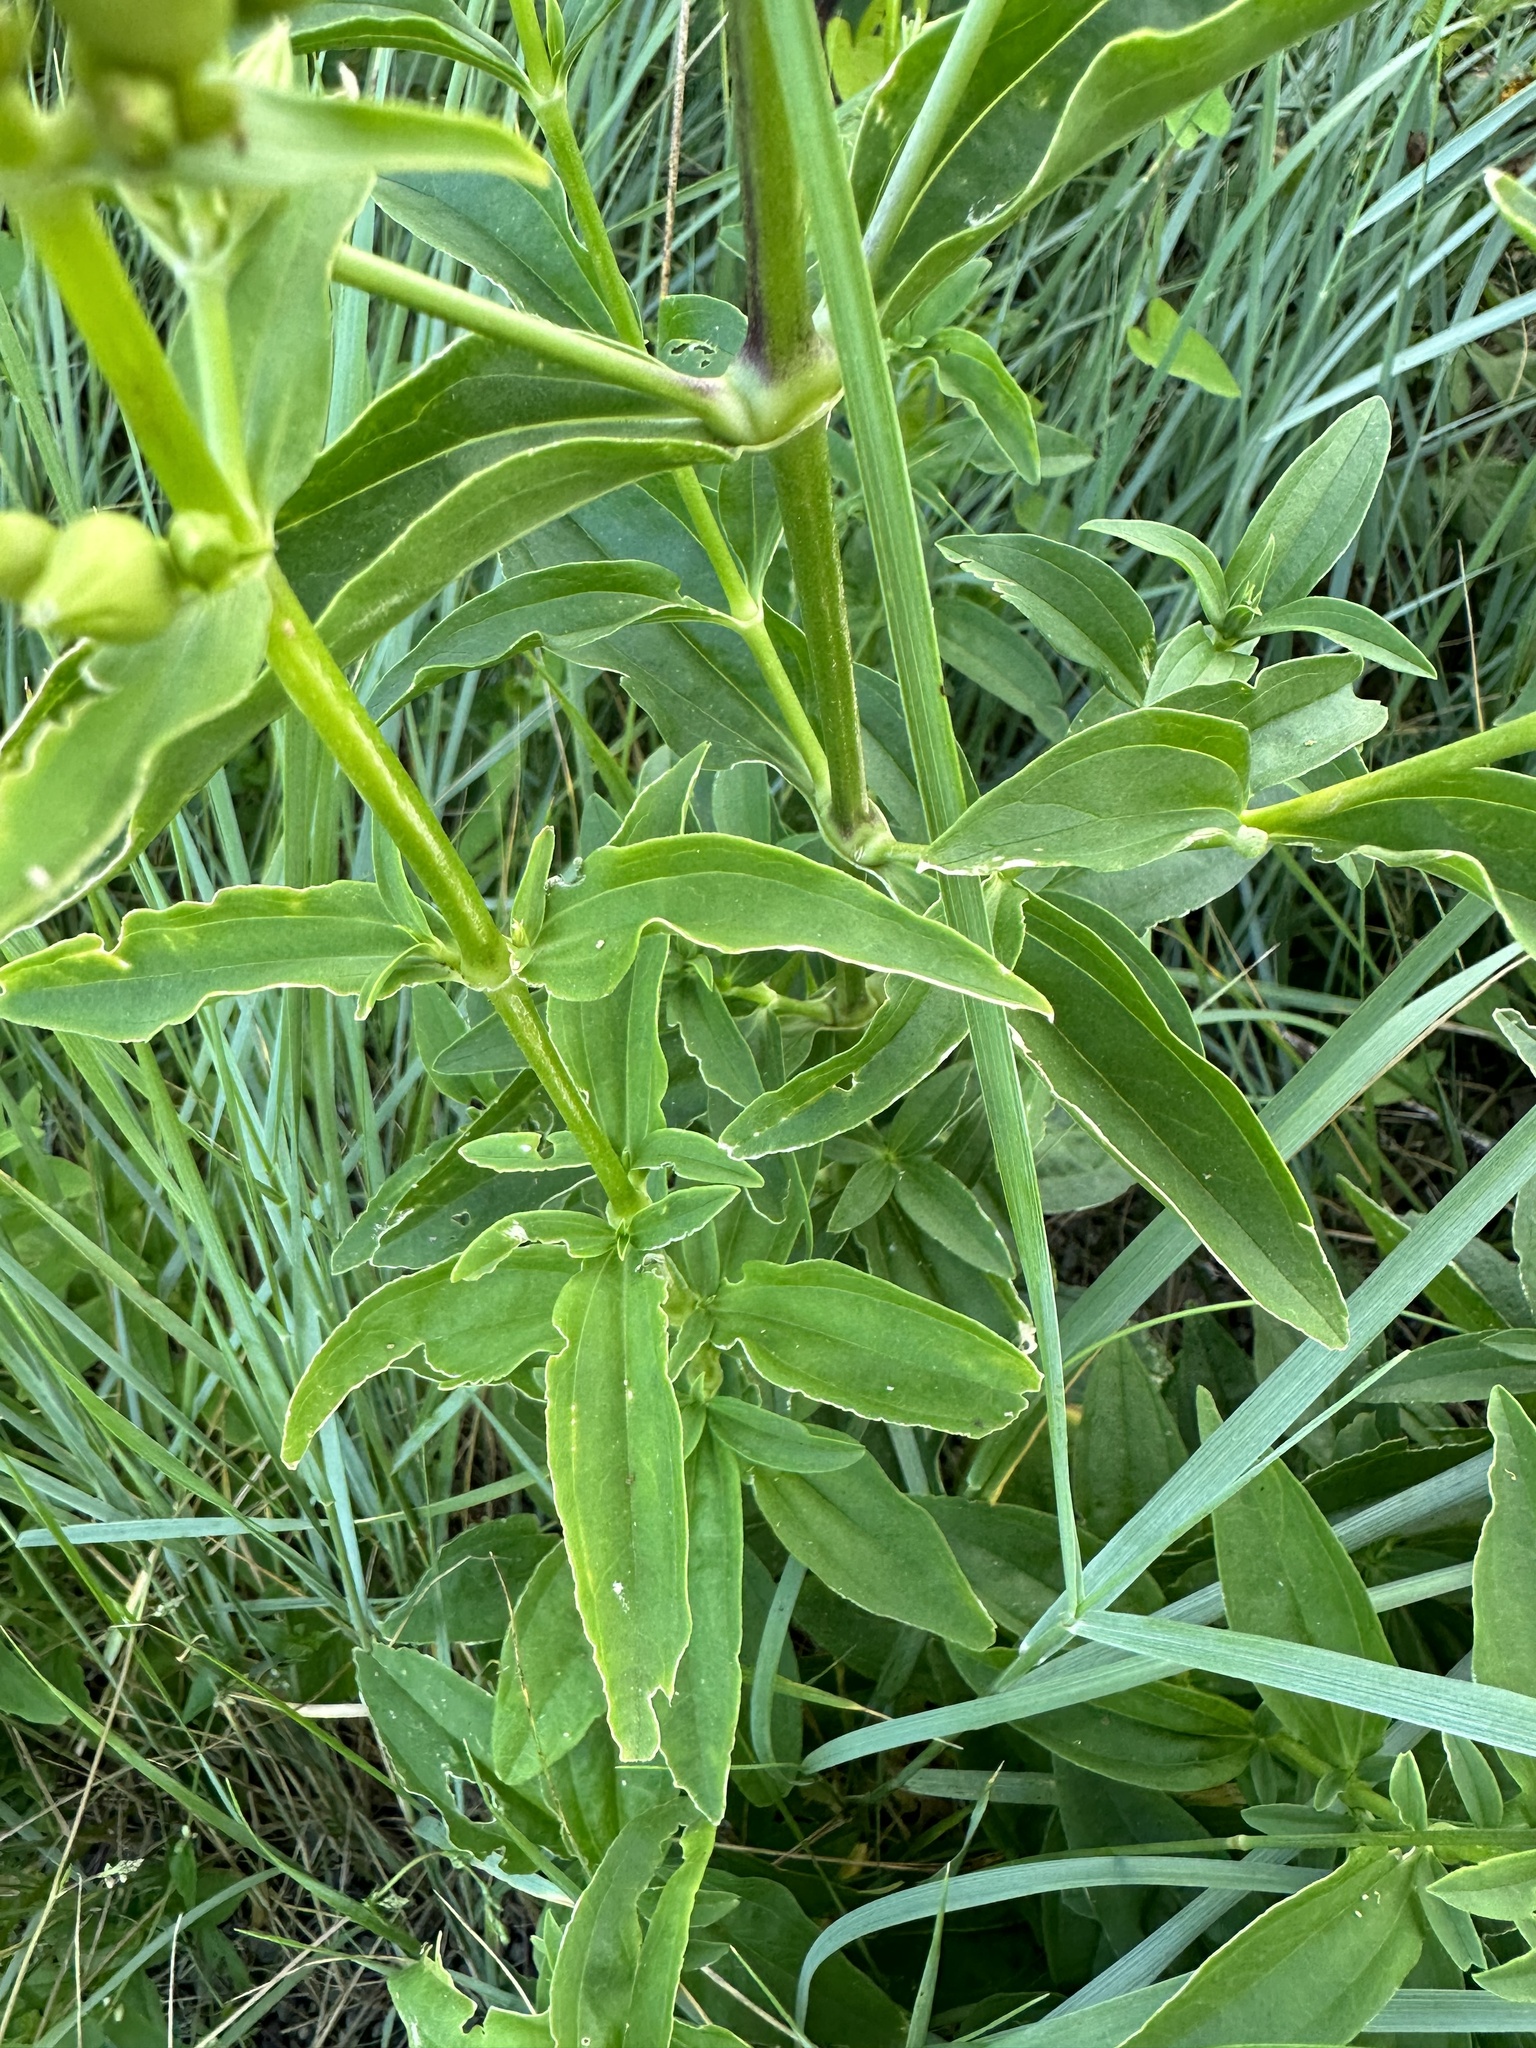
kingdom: Plantae
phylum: Tracheophyta
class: Magnoliopsida
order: Caryophyllales
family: Caryophyllaceae
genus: Saponaria
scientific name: Saponaria officinalis
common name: Soapwort
